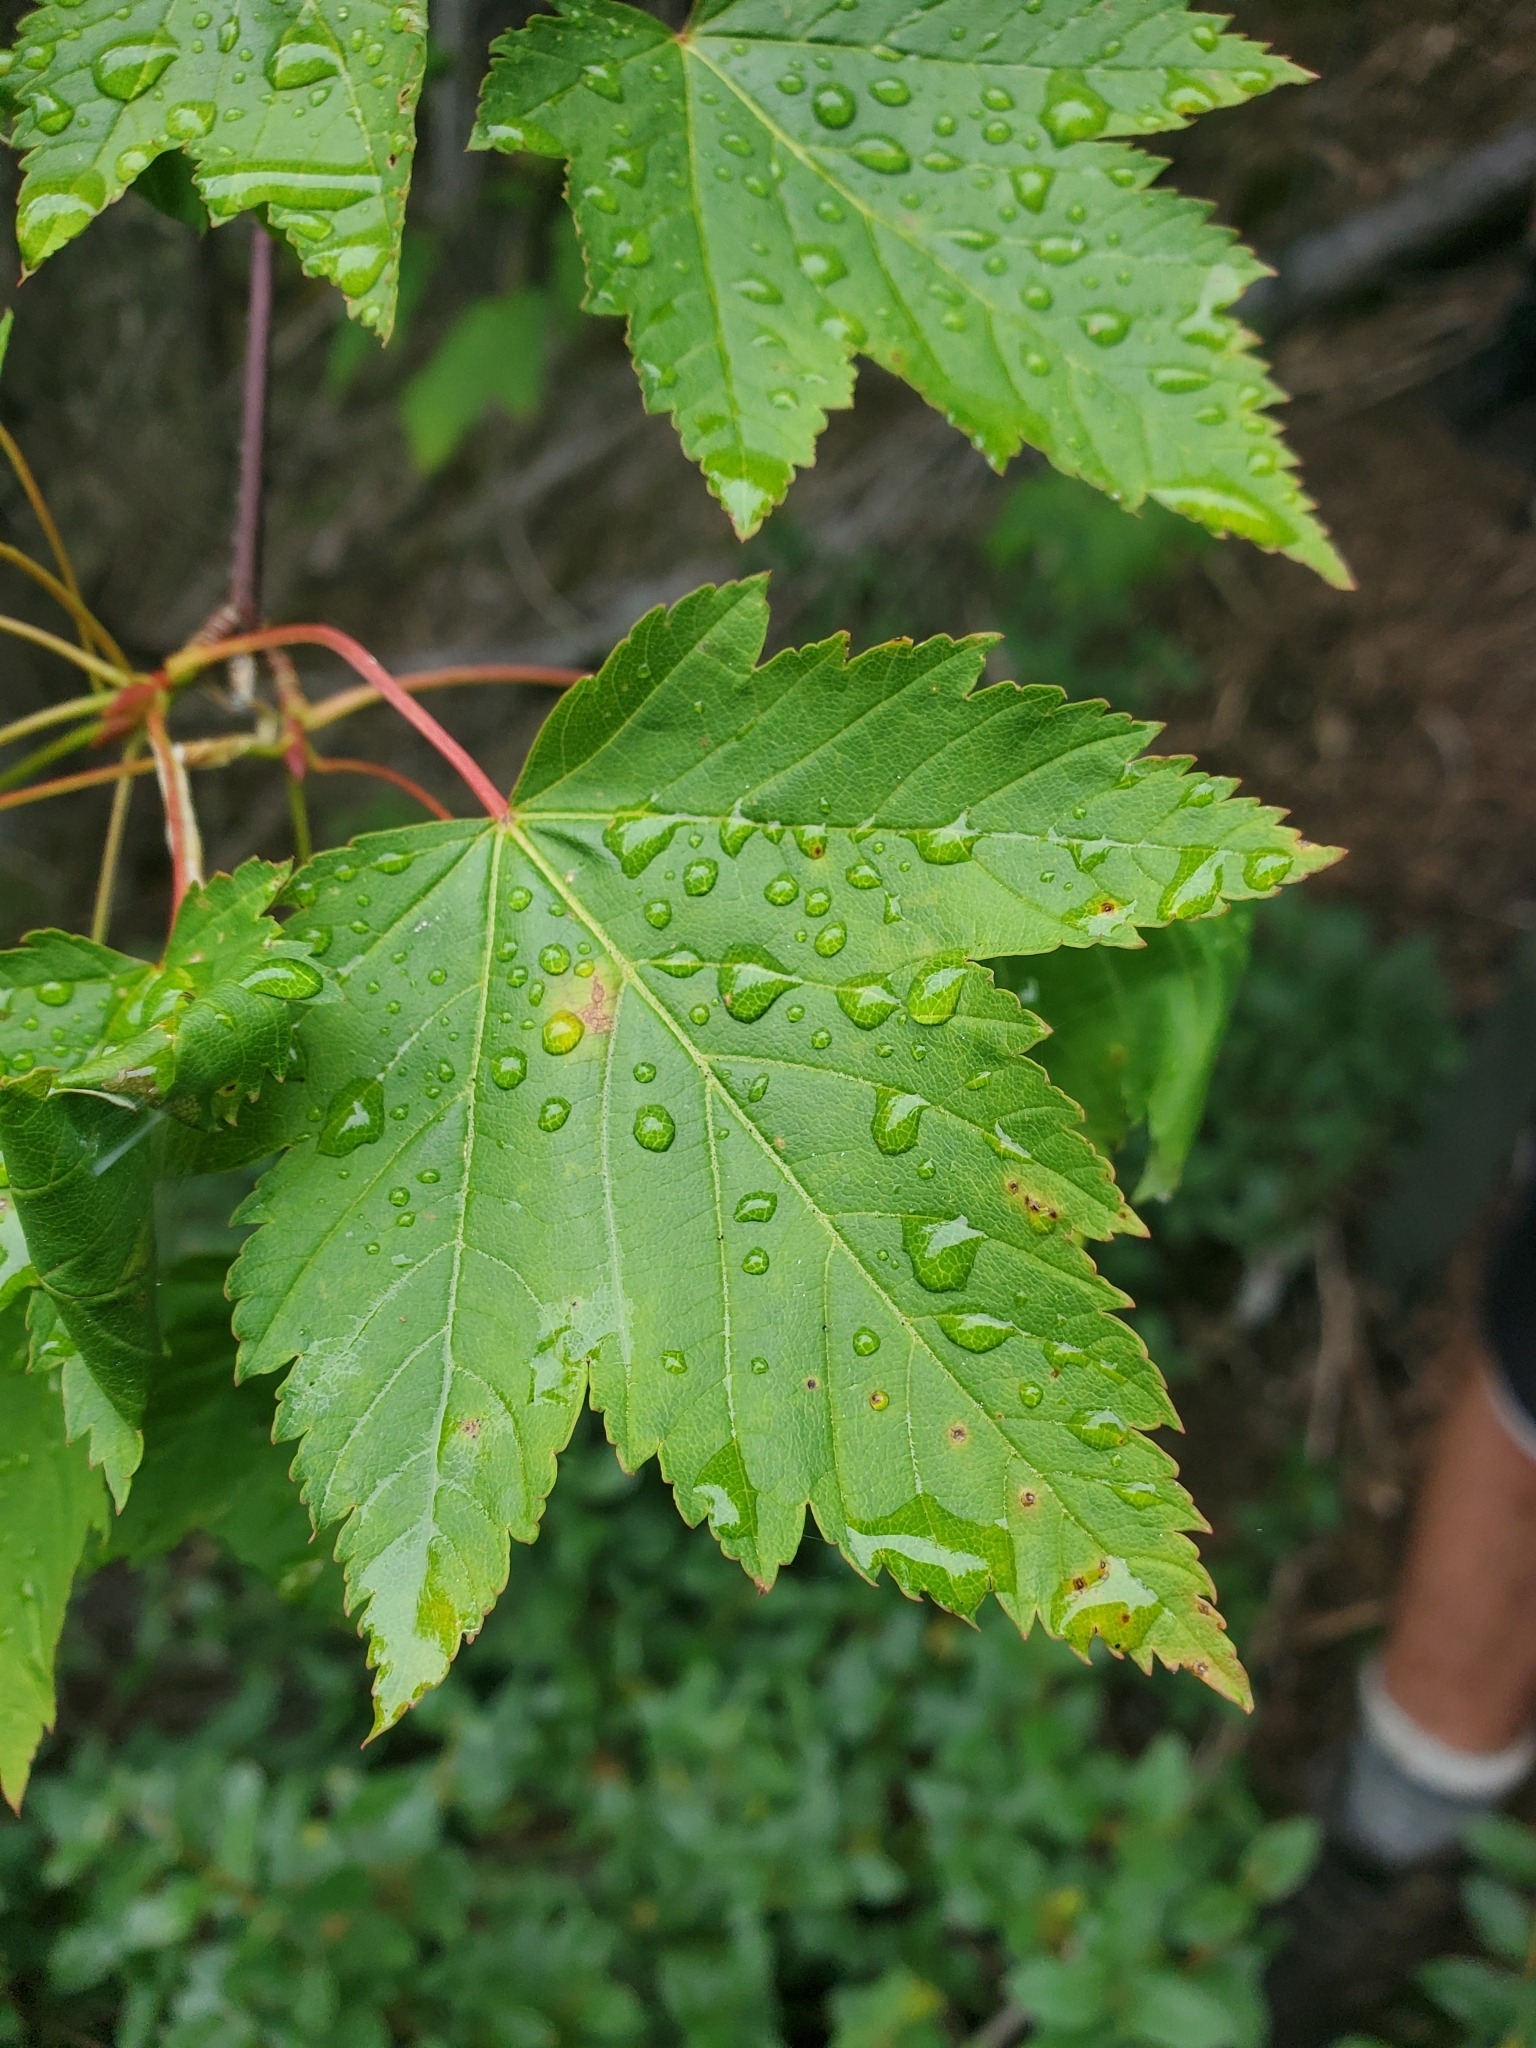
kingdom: Plantae
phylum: Tracheophyta
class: Magnoliopsida
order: Sapindales
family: Sapindaceae
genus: Acer
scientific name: Acer glabrum
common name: Rocky mountain maple
